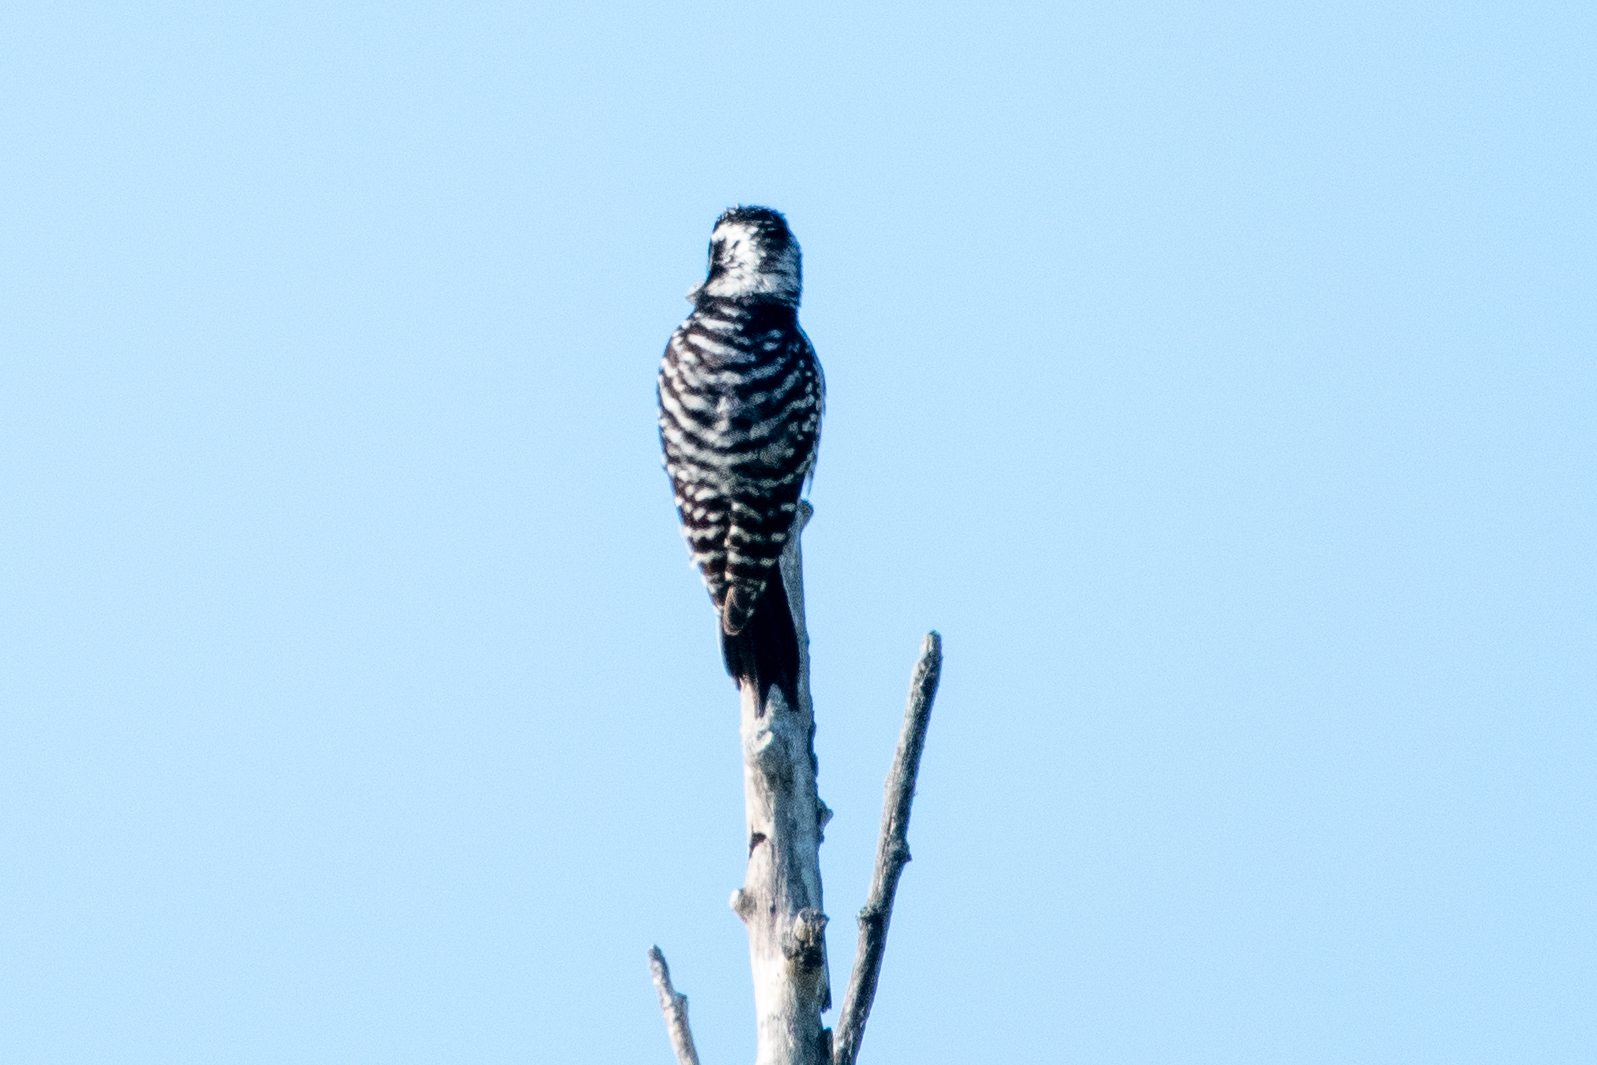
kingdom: Animalia
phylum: Chordata
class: Aves
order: Piciformes
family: Picidae
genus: Dryobates
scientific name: Dryobates nuttallii
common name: Nuttall's woodpecker
